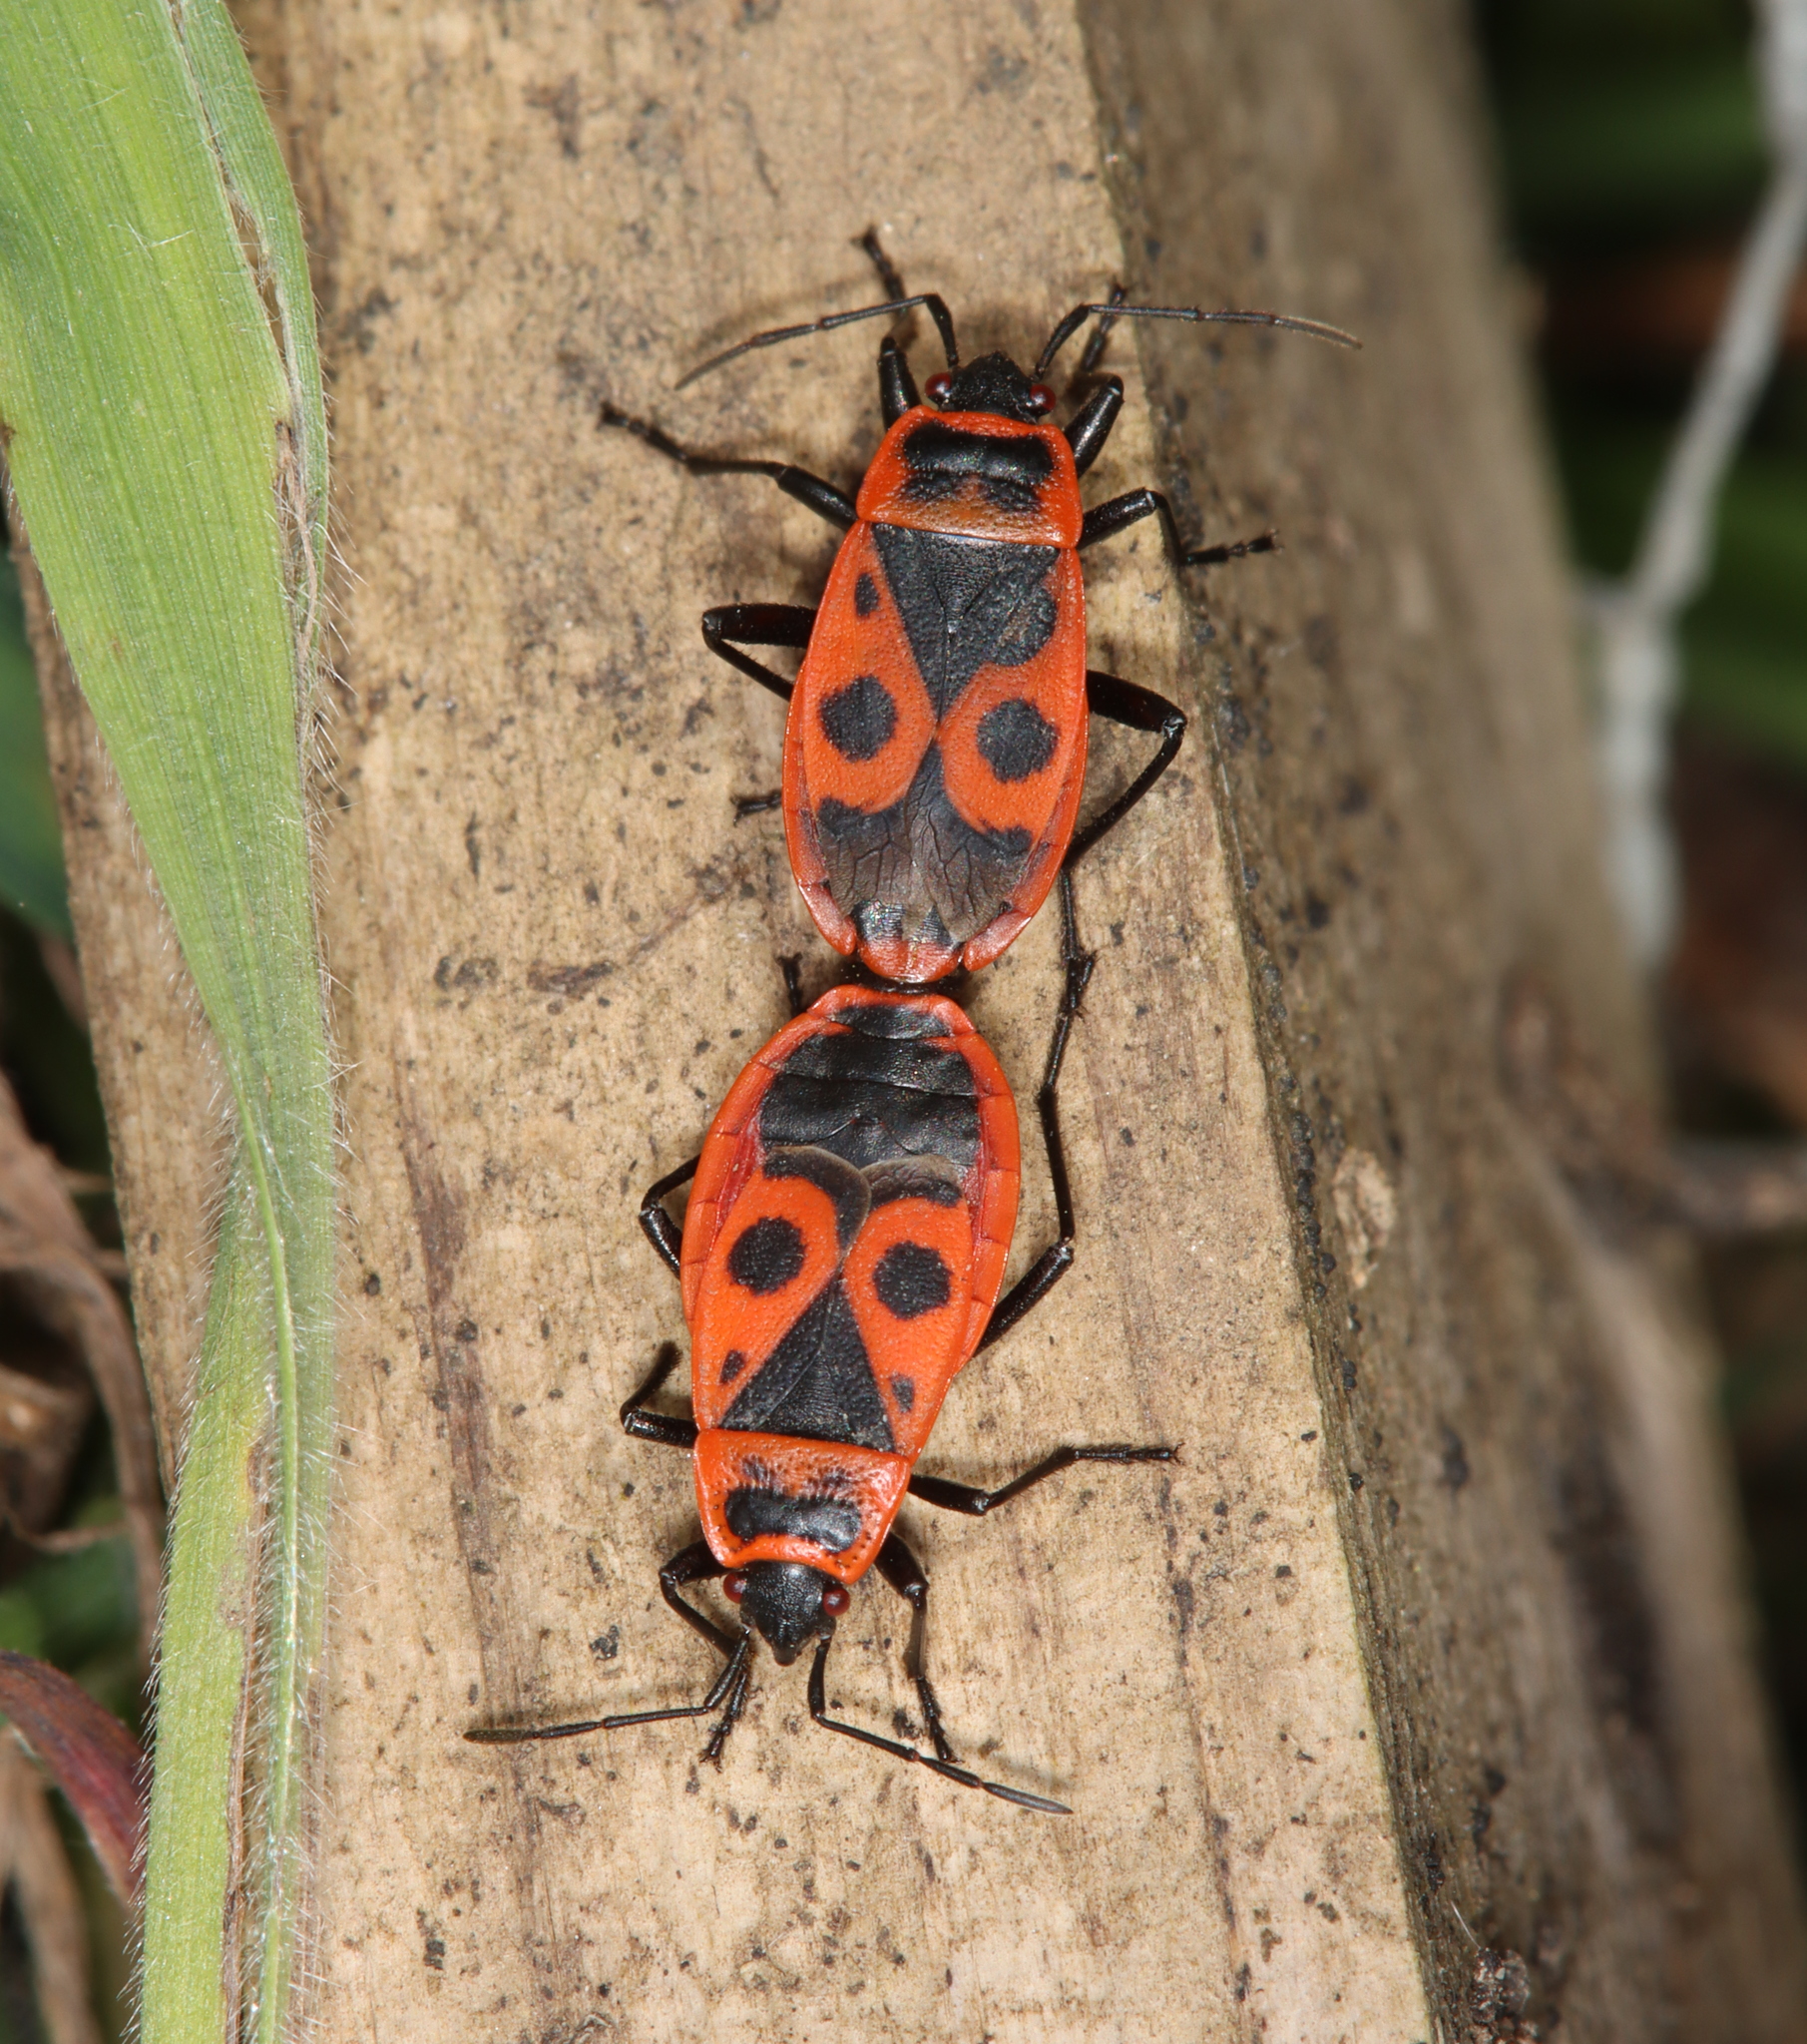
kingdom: Animalia
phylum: Arthropoda
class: Insecta
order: Hemiptera
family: Pyrrhocoridae
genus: Pyrrhocoris
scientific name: Pyrrhocoris apterus
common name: Firebug
